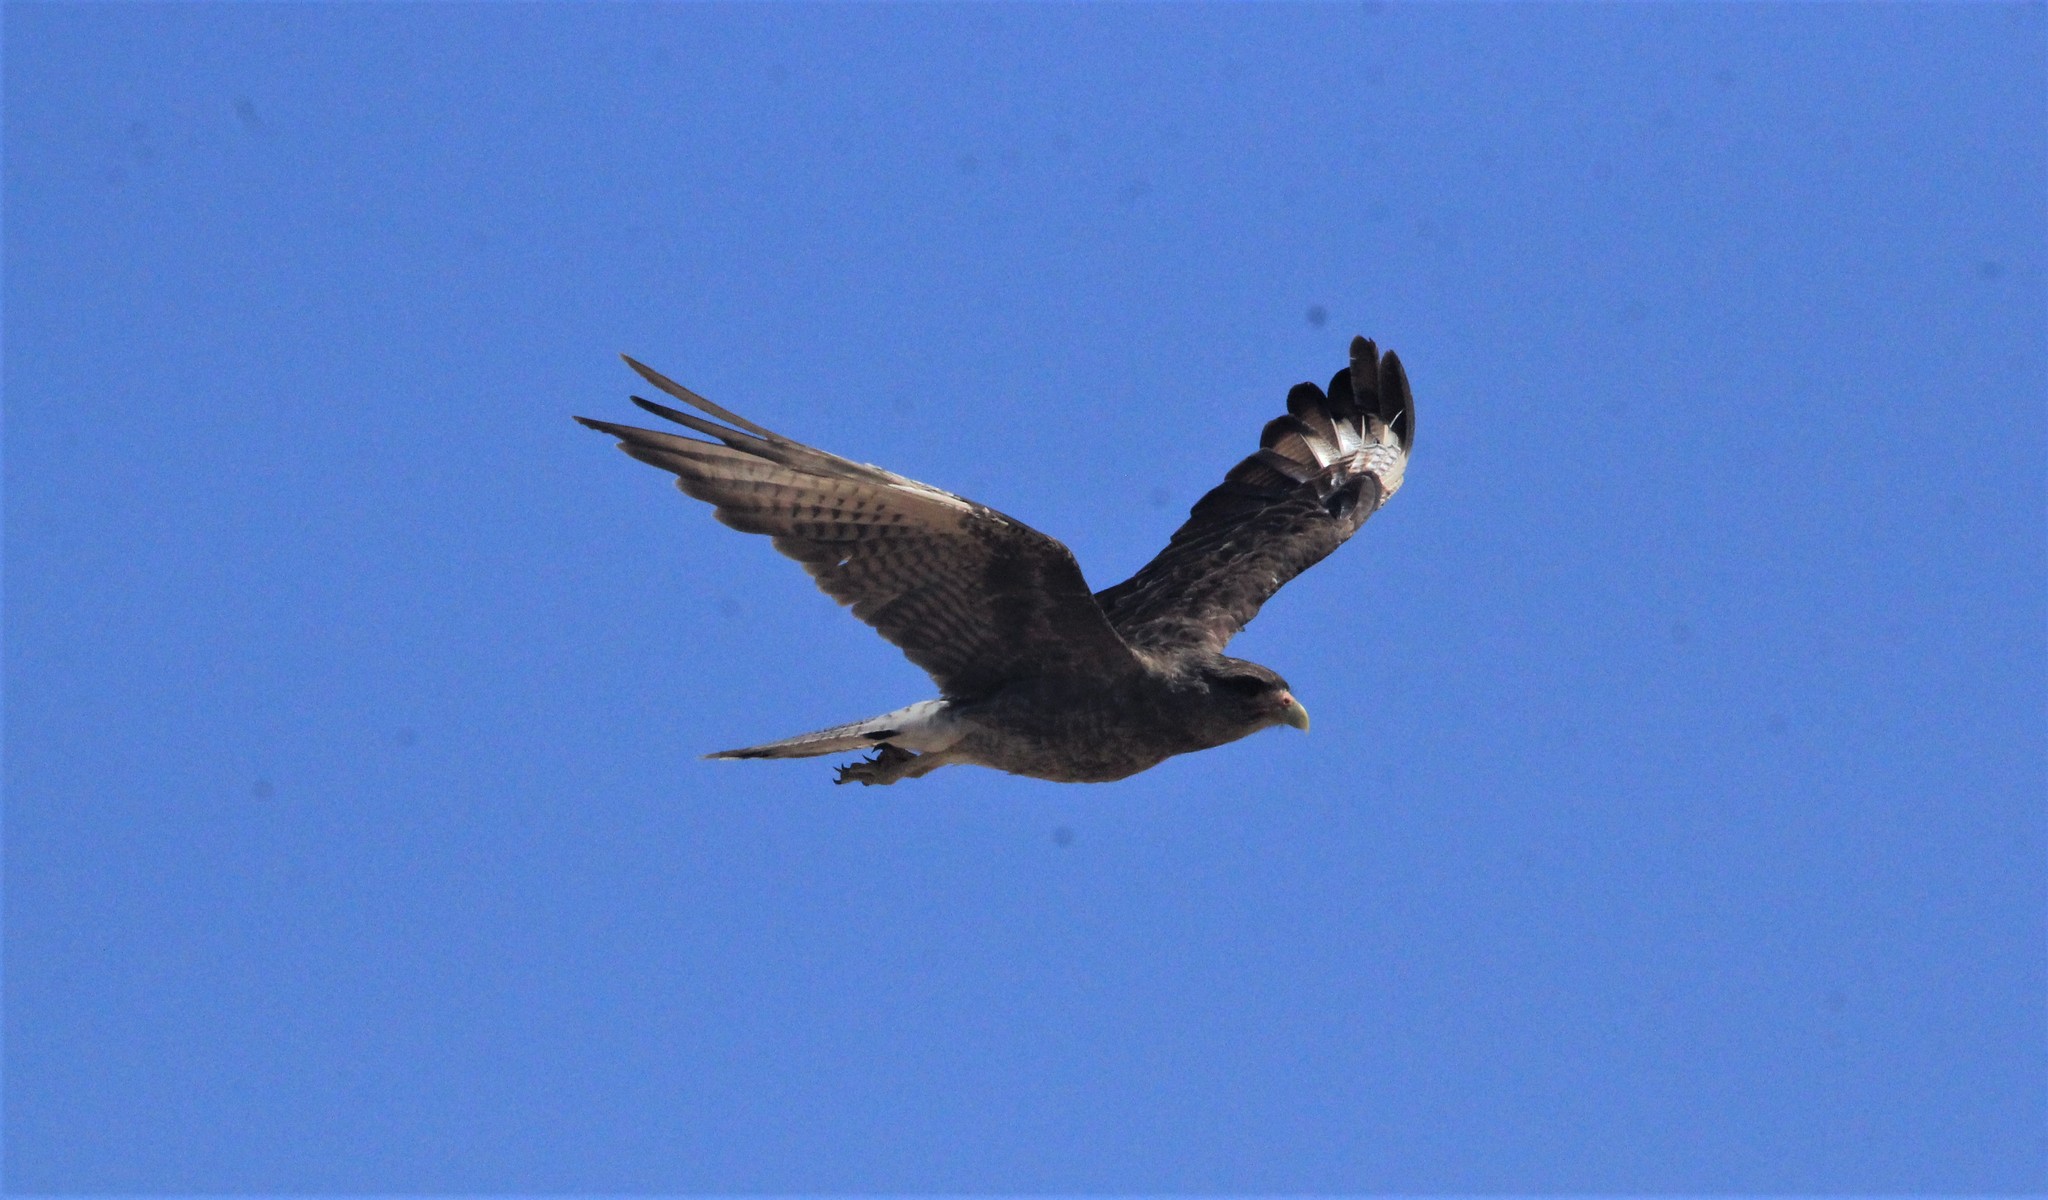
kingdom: Animalia
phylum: Chordata
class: Aves
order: Falconiformes
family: Falconidae
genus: Daptrius
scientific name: Daptrius
